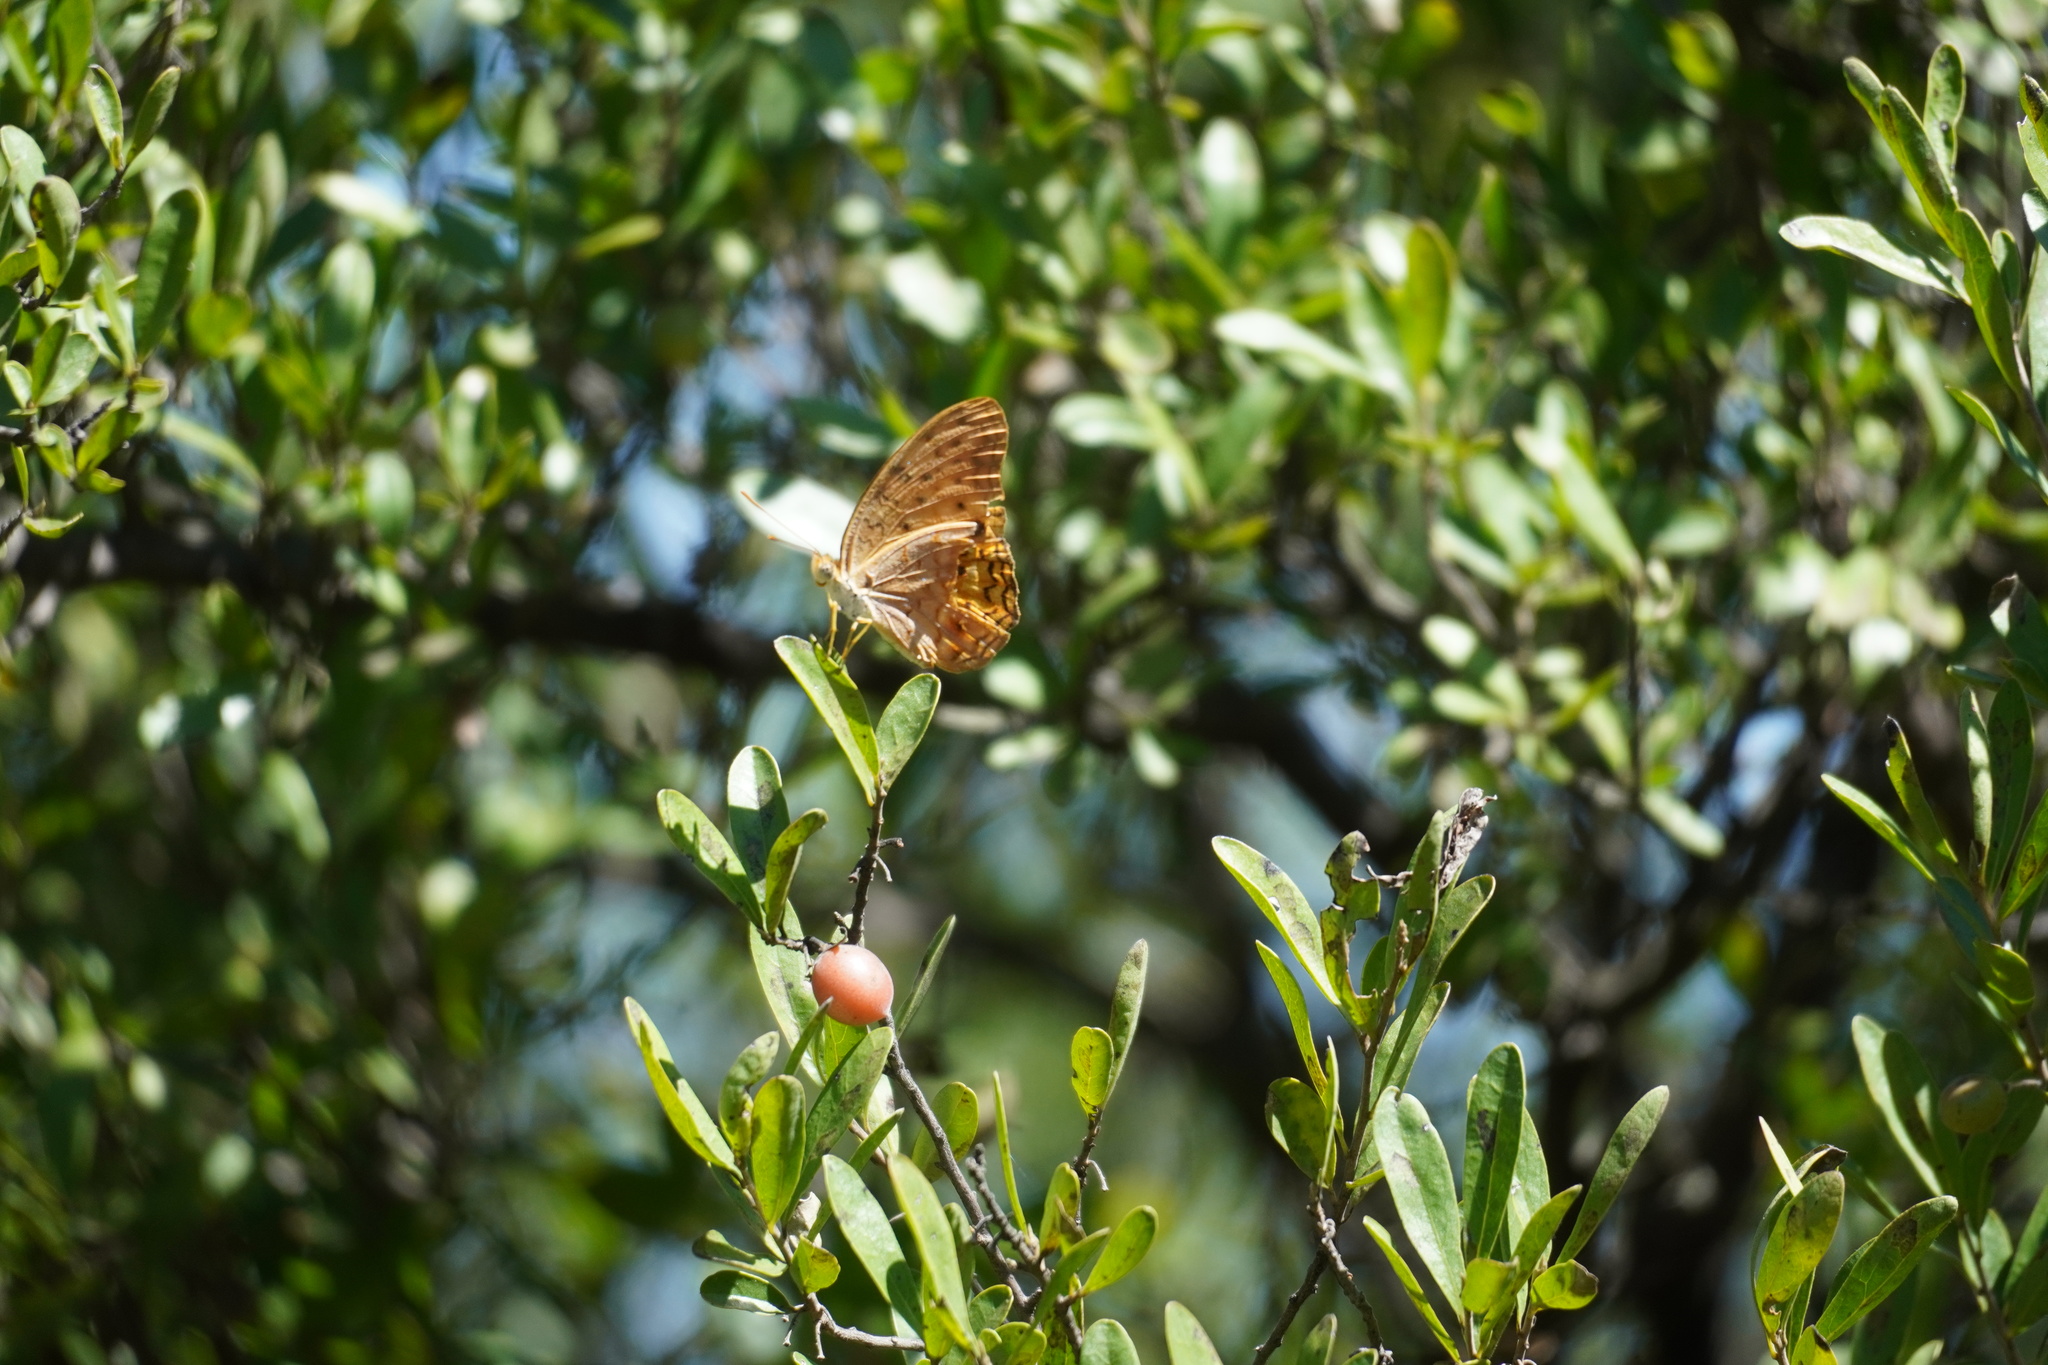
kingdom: Animalia
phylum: Arthropoda
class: Insecta
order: Lepidoptera
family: Nymphalidae
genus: Phalanta
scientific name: Phalanta phalantha
